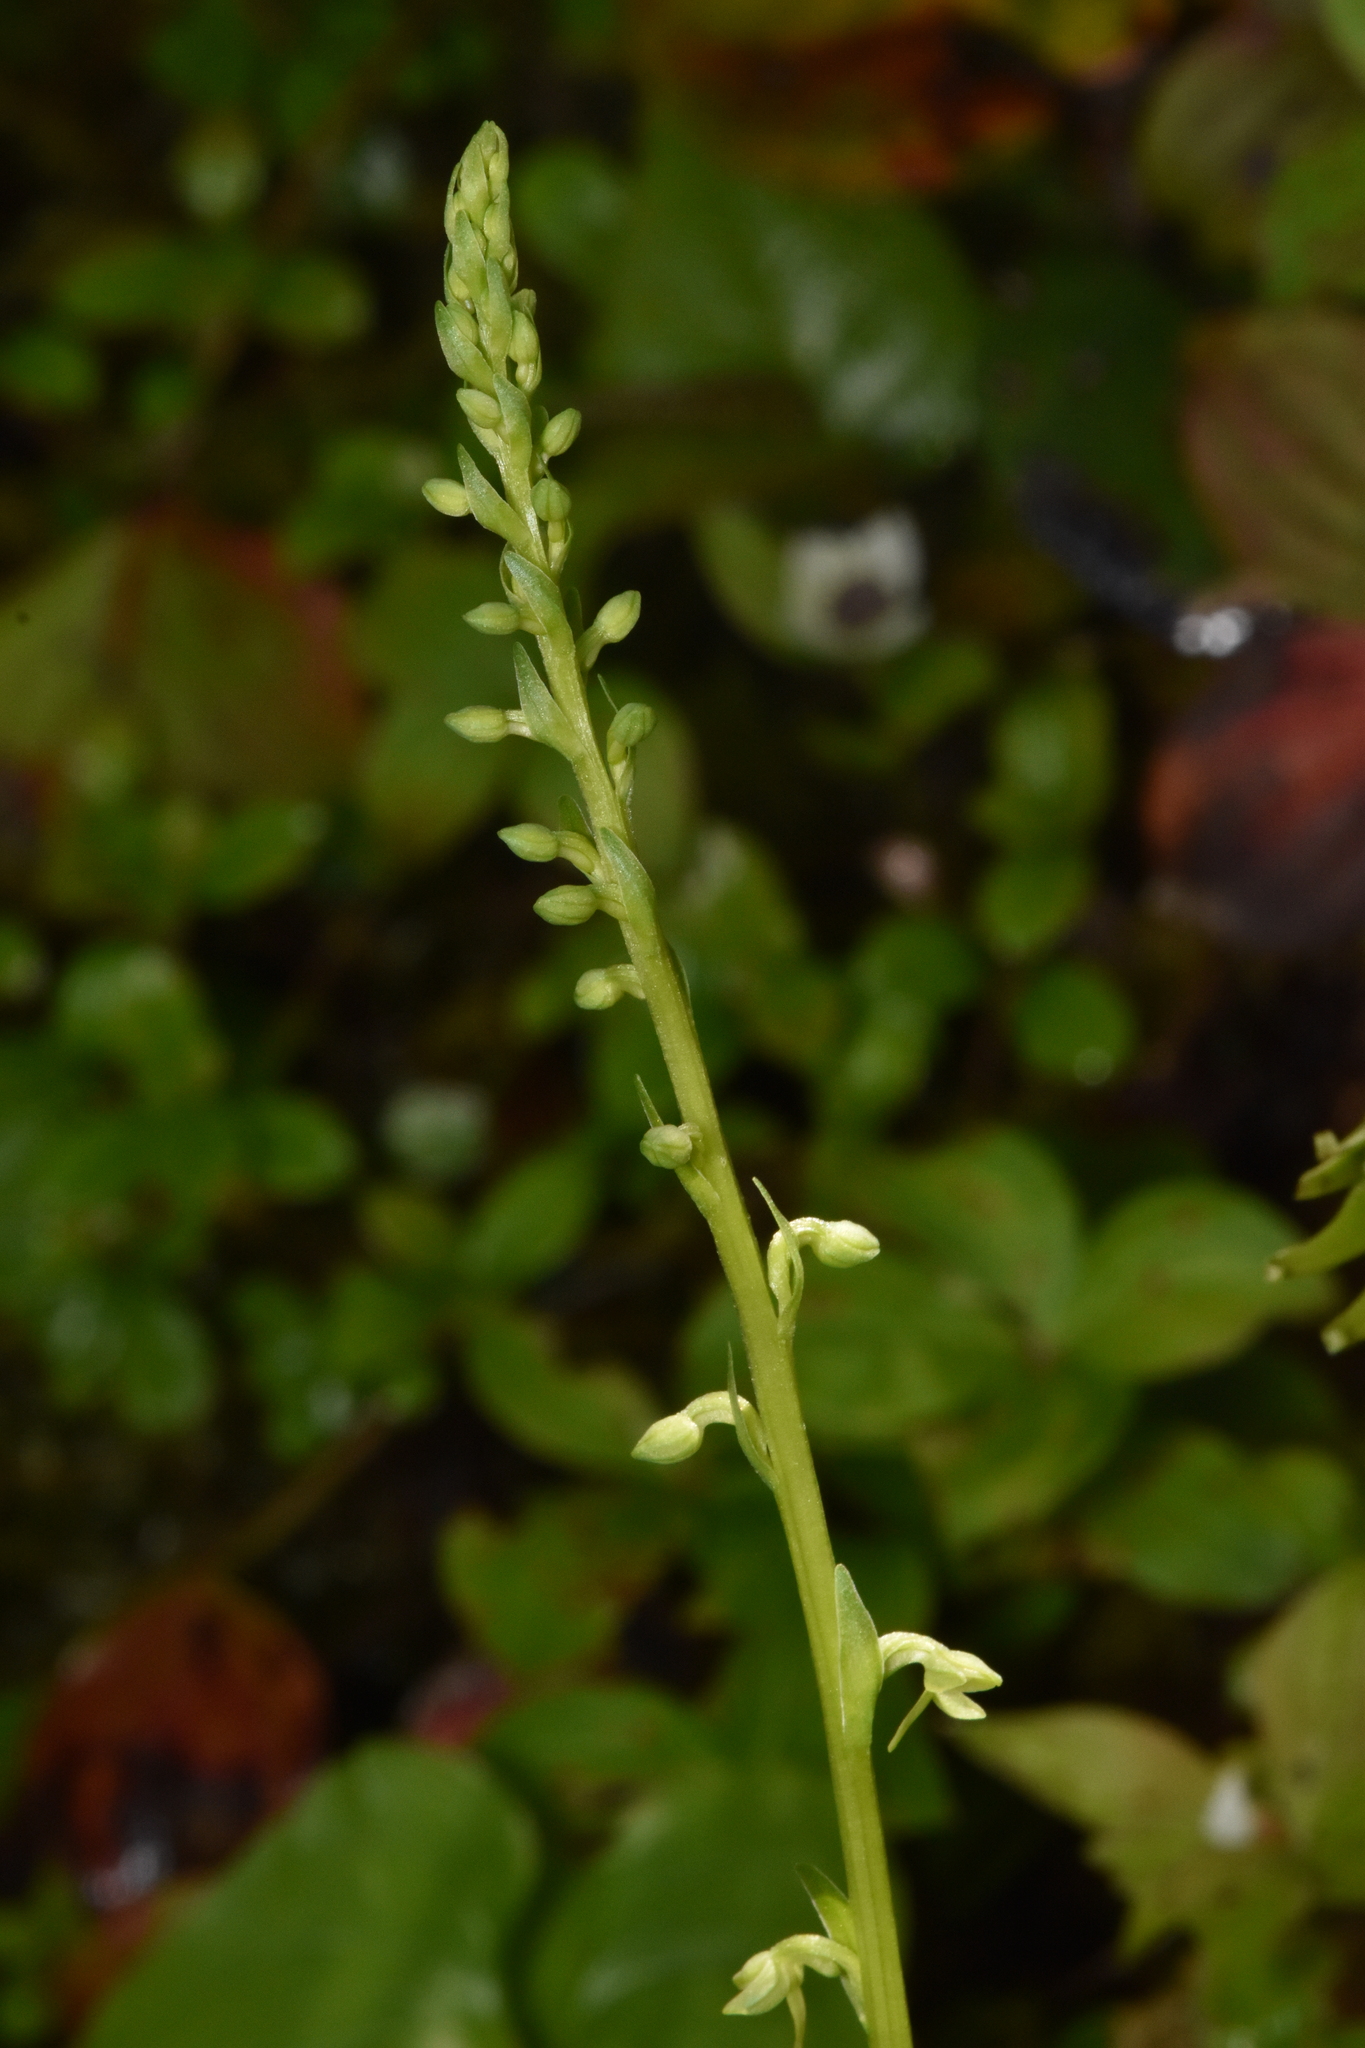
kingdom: Plantae
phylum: Tracheophyta
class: Liliopsida
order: Asparagales
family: Orchidaceae
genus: Platanthera
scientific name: Platanthera stricta
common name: Slender bog orchid
